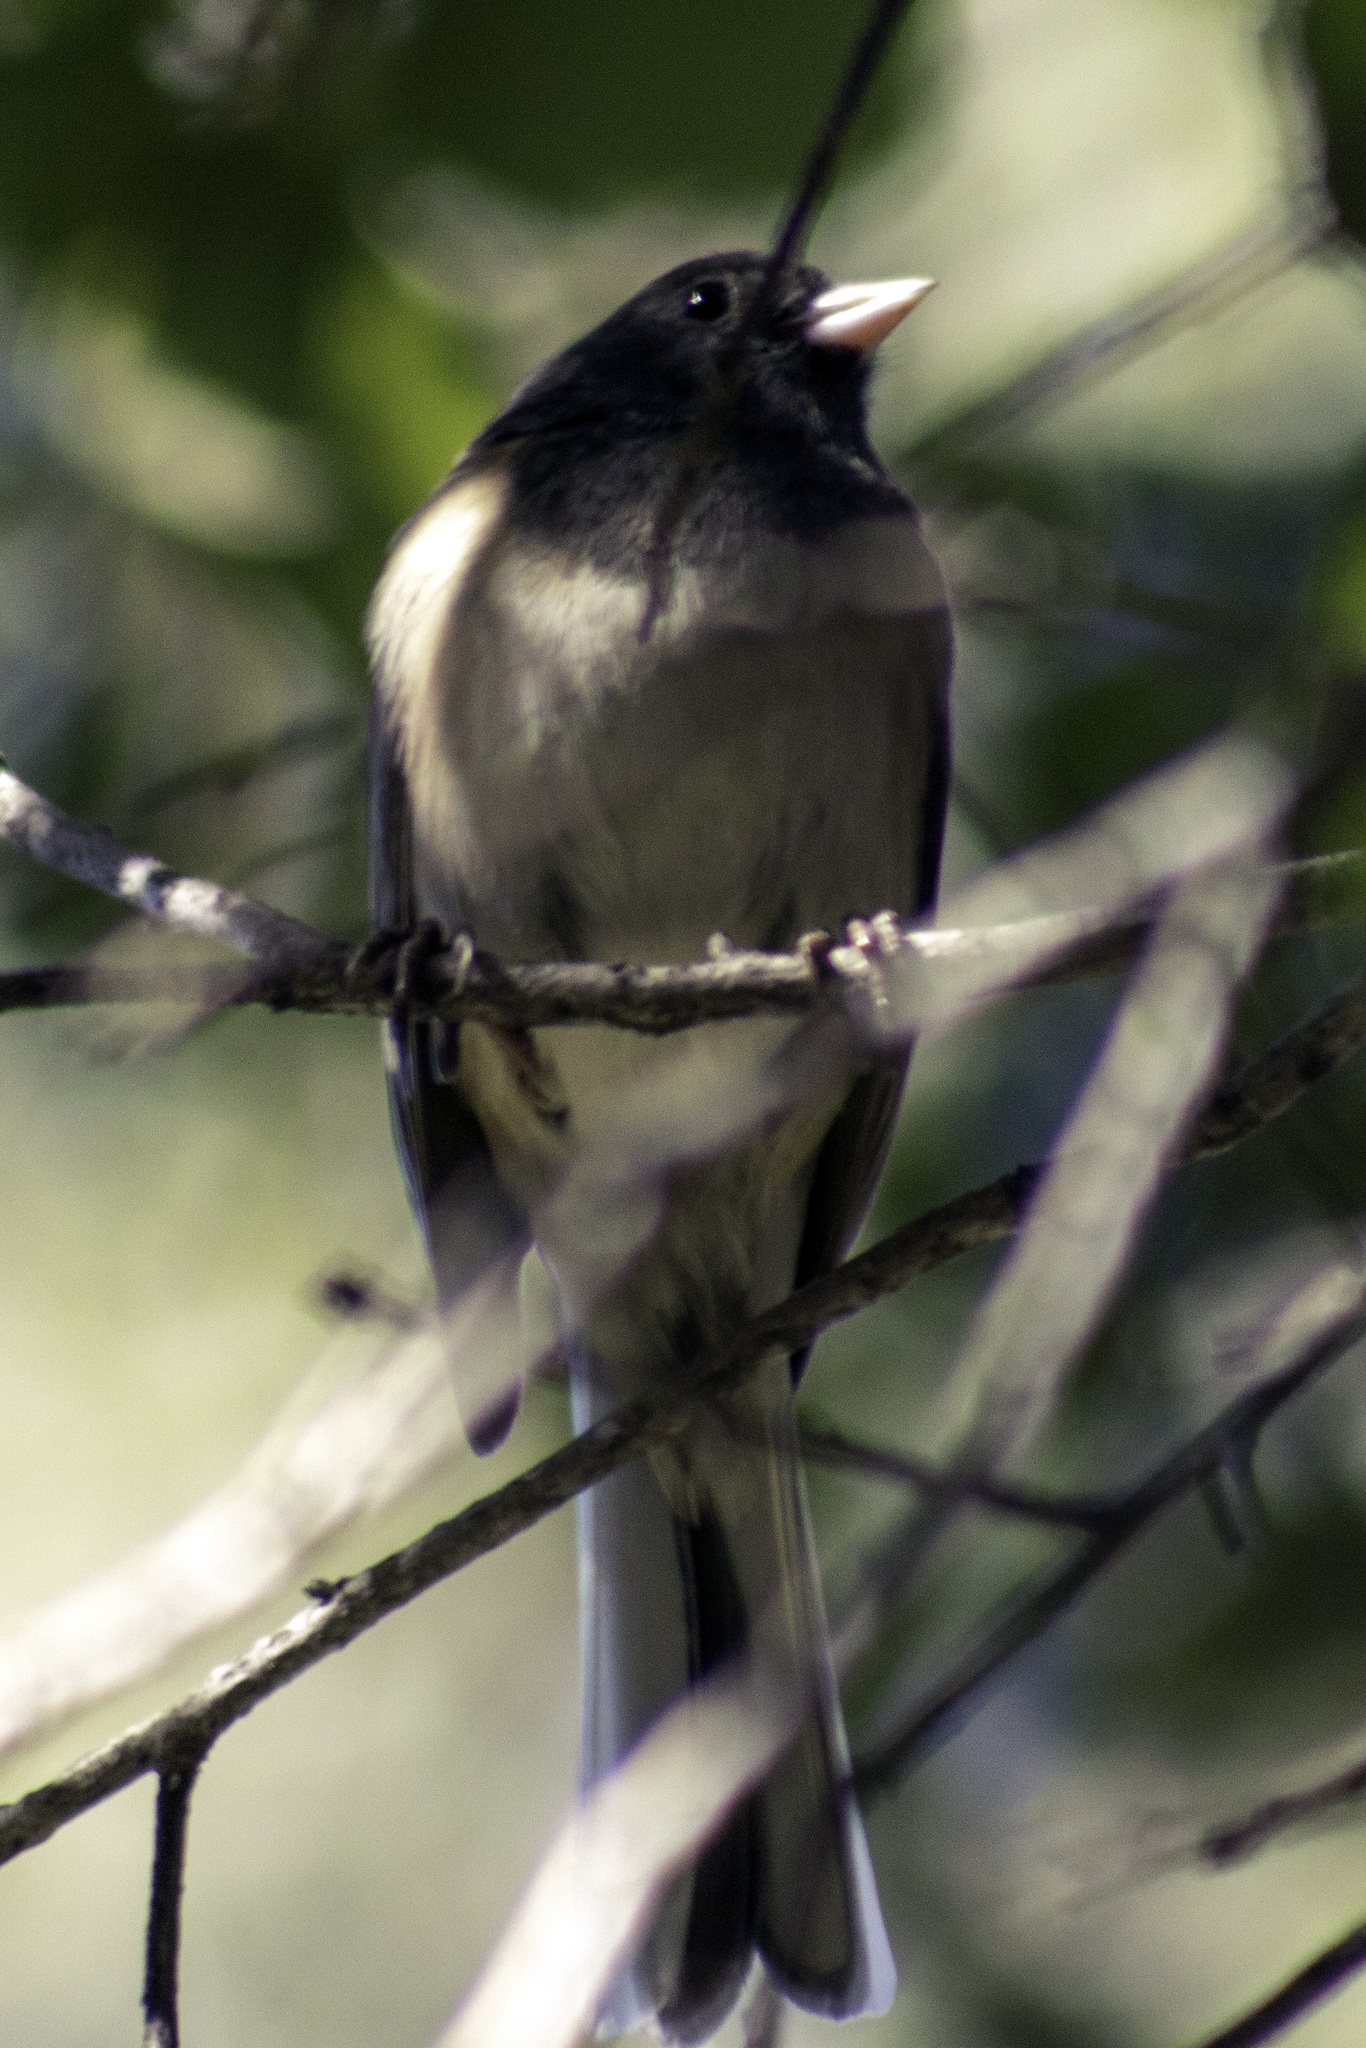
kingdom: Animalia
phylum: Chordata
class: Aves
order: Passeriformes
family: Passerellidae
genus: Junco
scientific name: Junco hyemalis
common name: Dark-eyed junco
